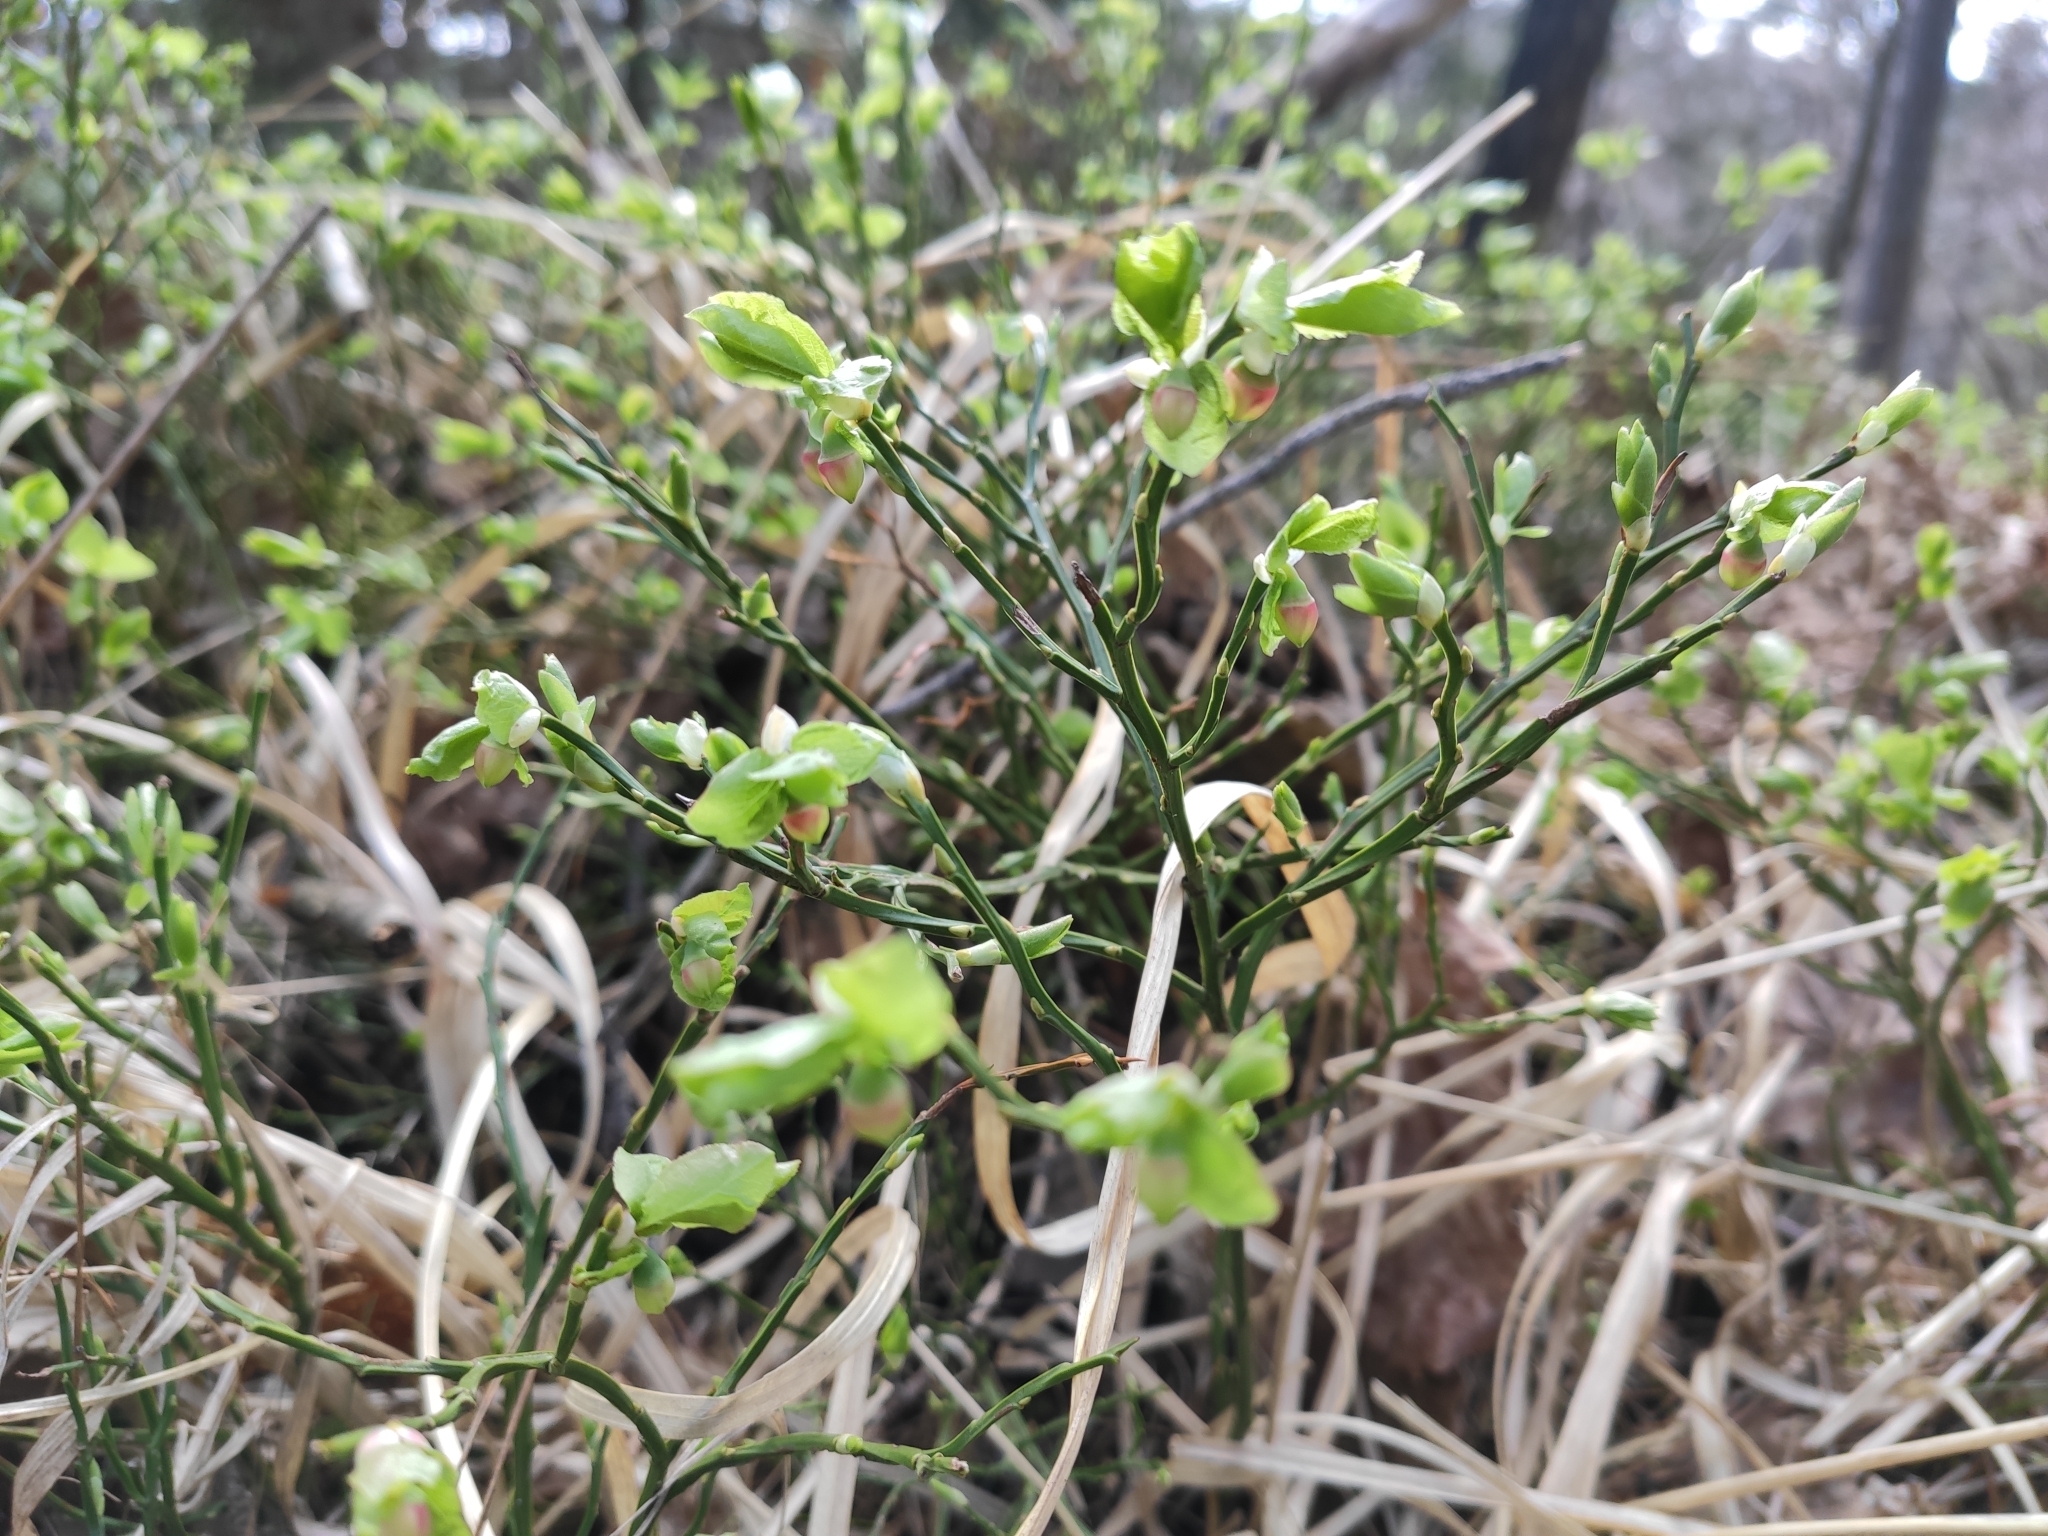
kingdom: Plantae
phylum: Tracheophyta
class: Magnoliopsida
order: Ericales
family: Ericaceae
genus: Vaccinium
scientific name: Vaccinium myrtillus
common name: Bilberry
